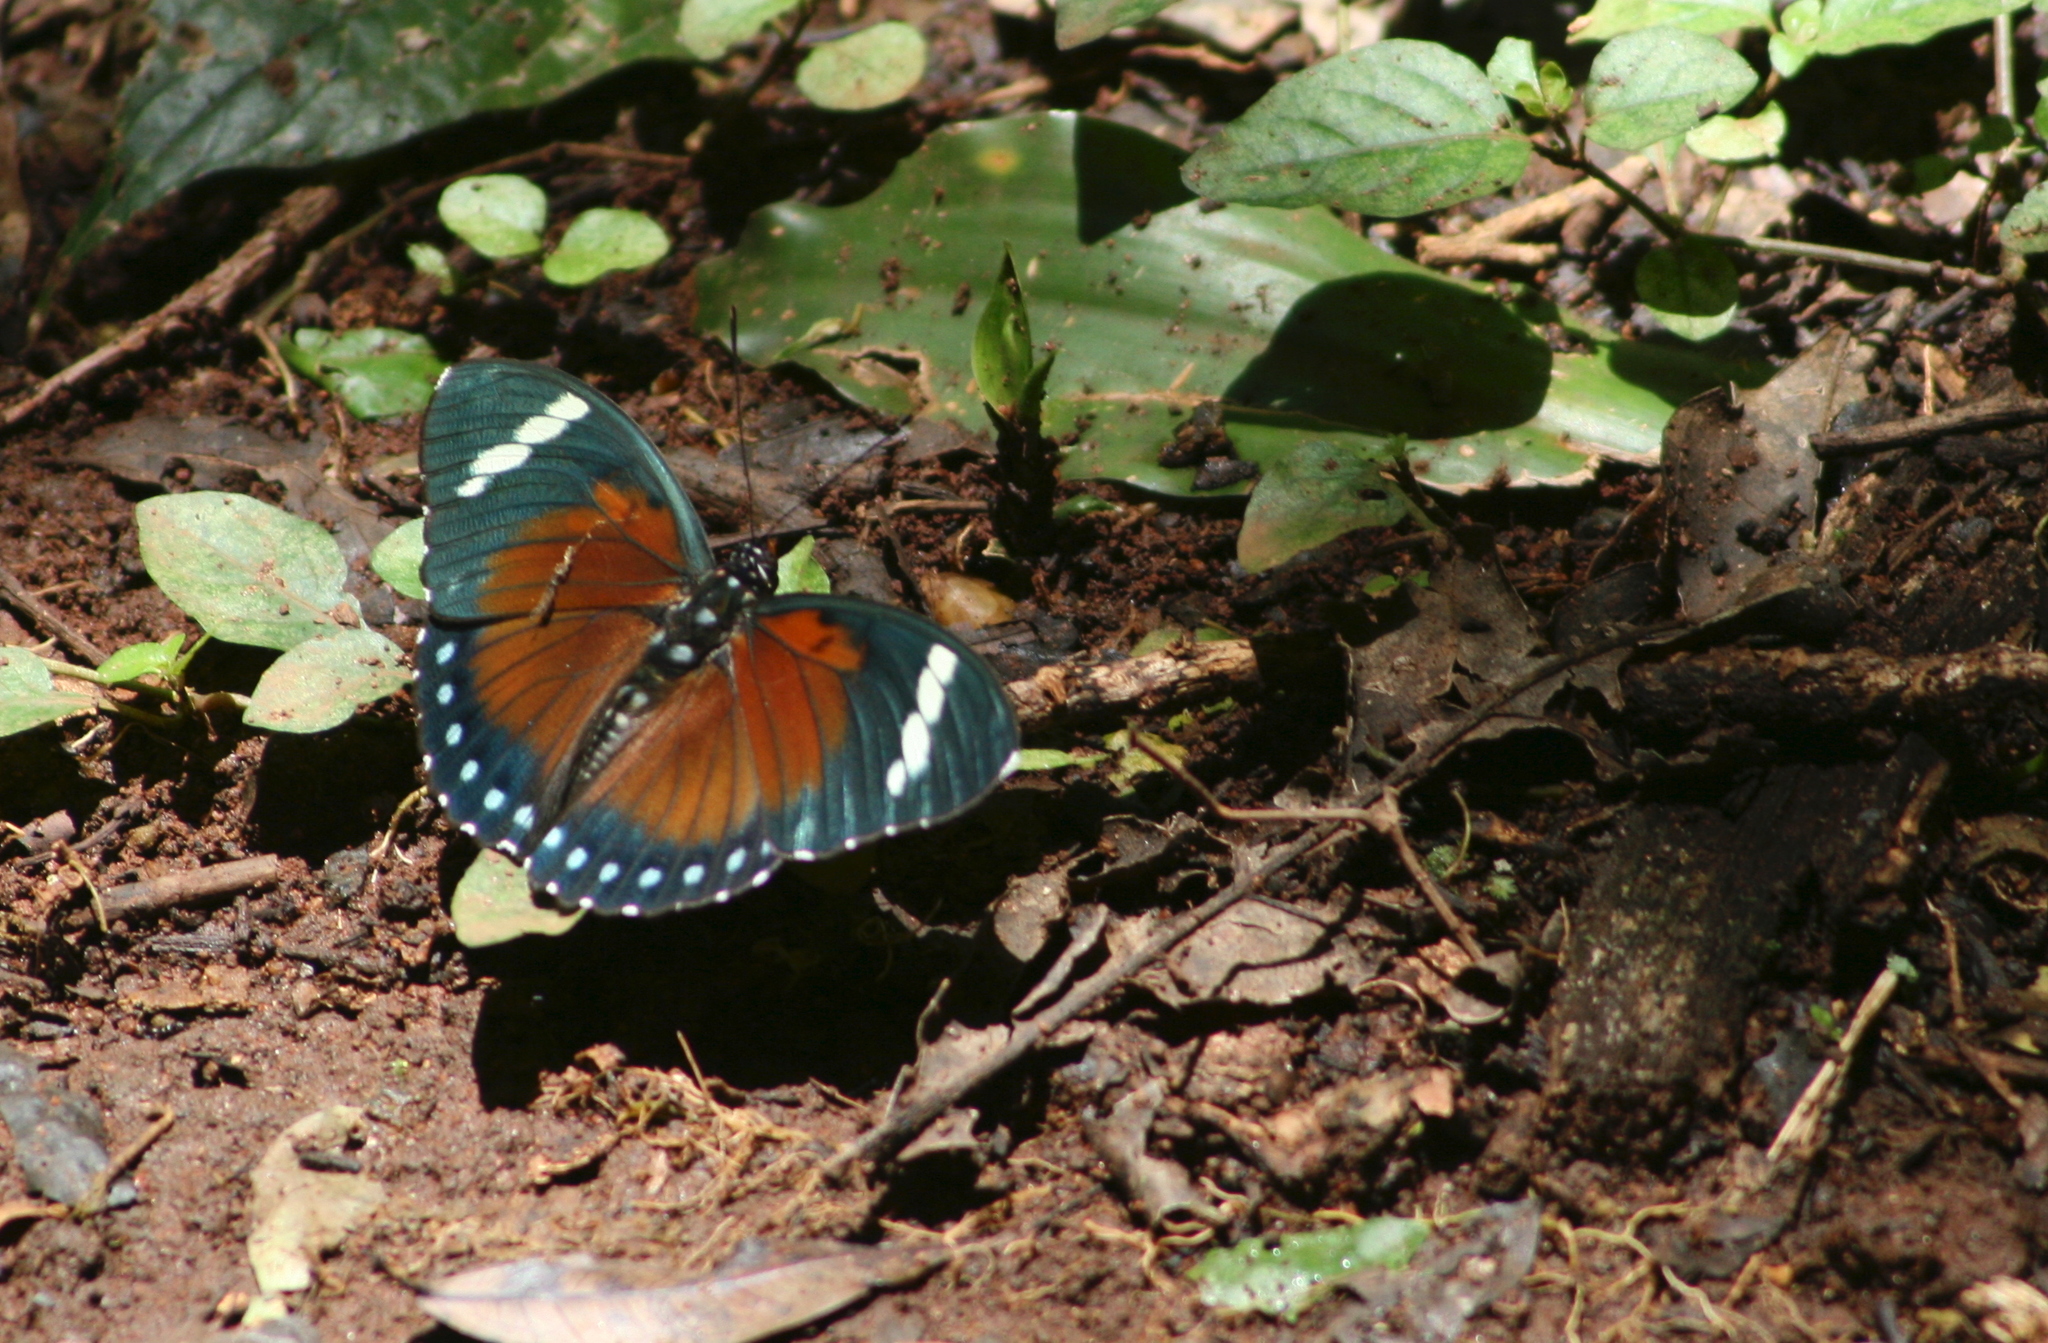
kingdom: Animalia
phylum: Arthropoda
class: Insecta
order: Lepidoptera
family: Nymphalidae
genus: Euphaedra
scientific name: Euphaedra rattrayi
